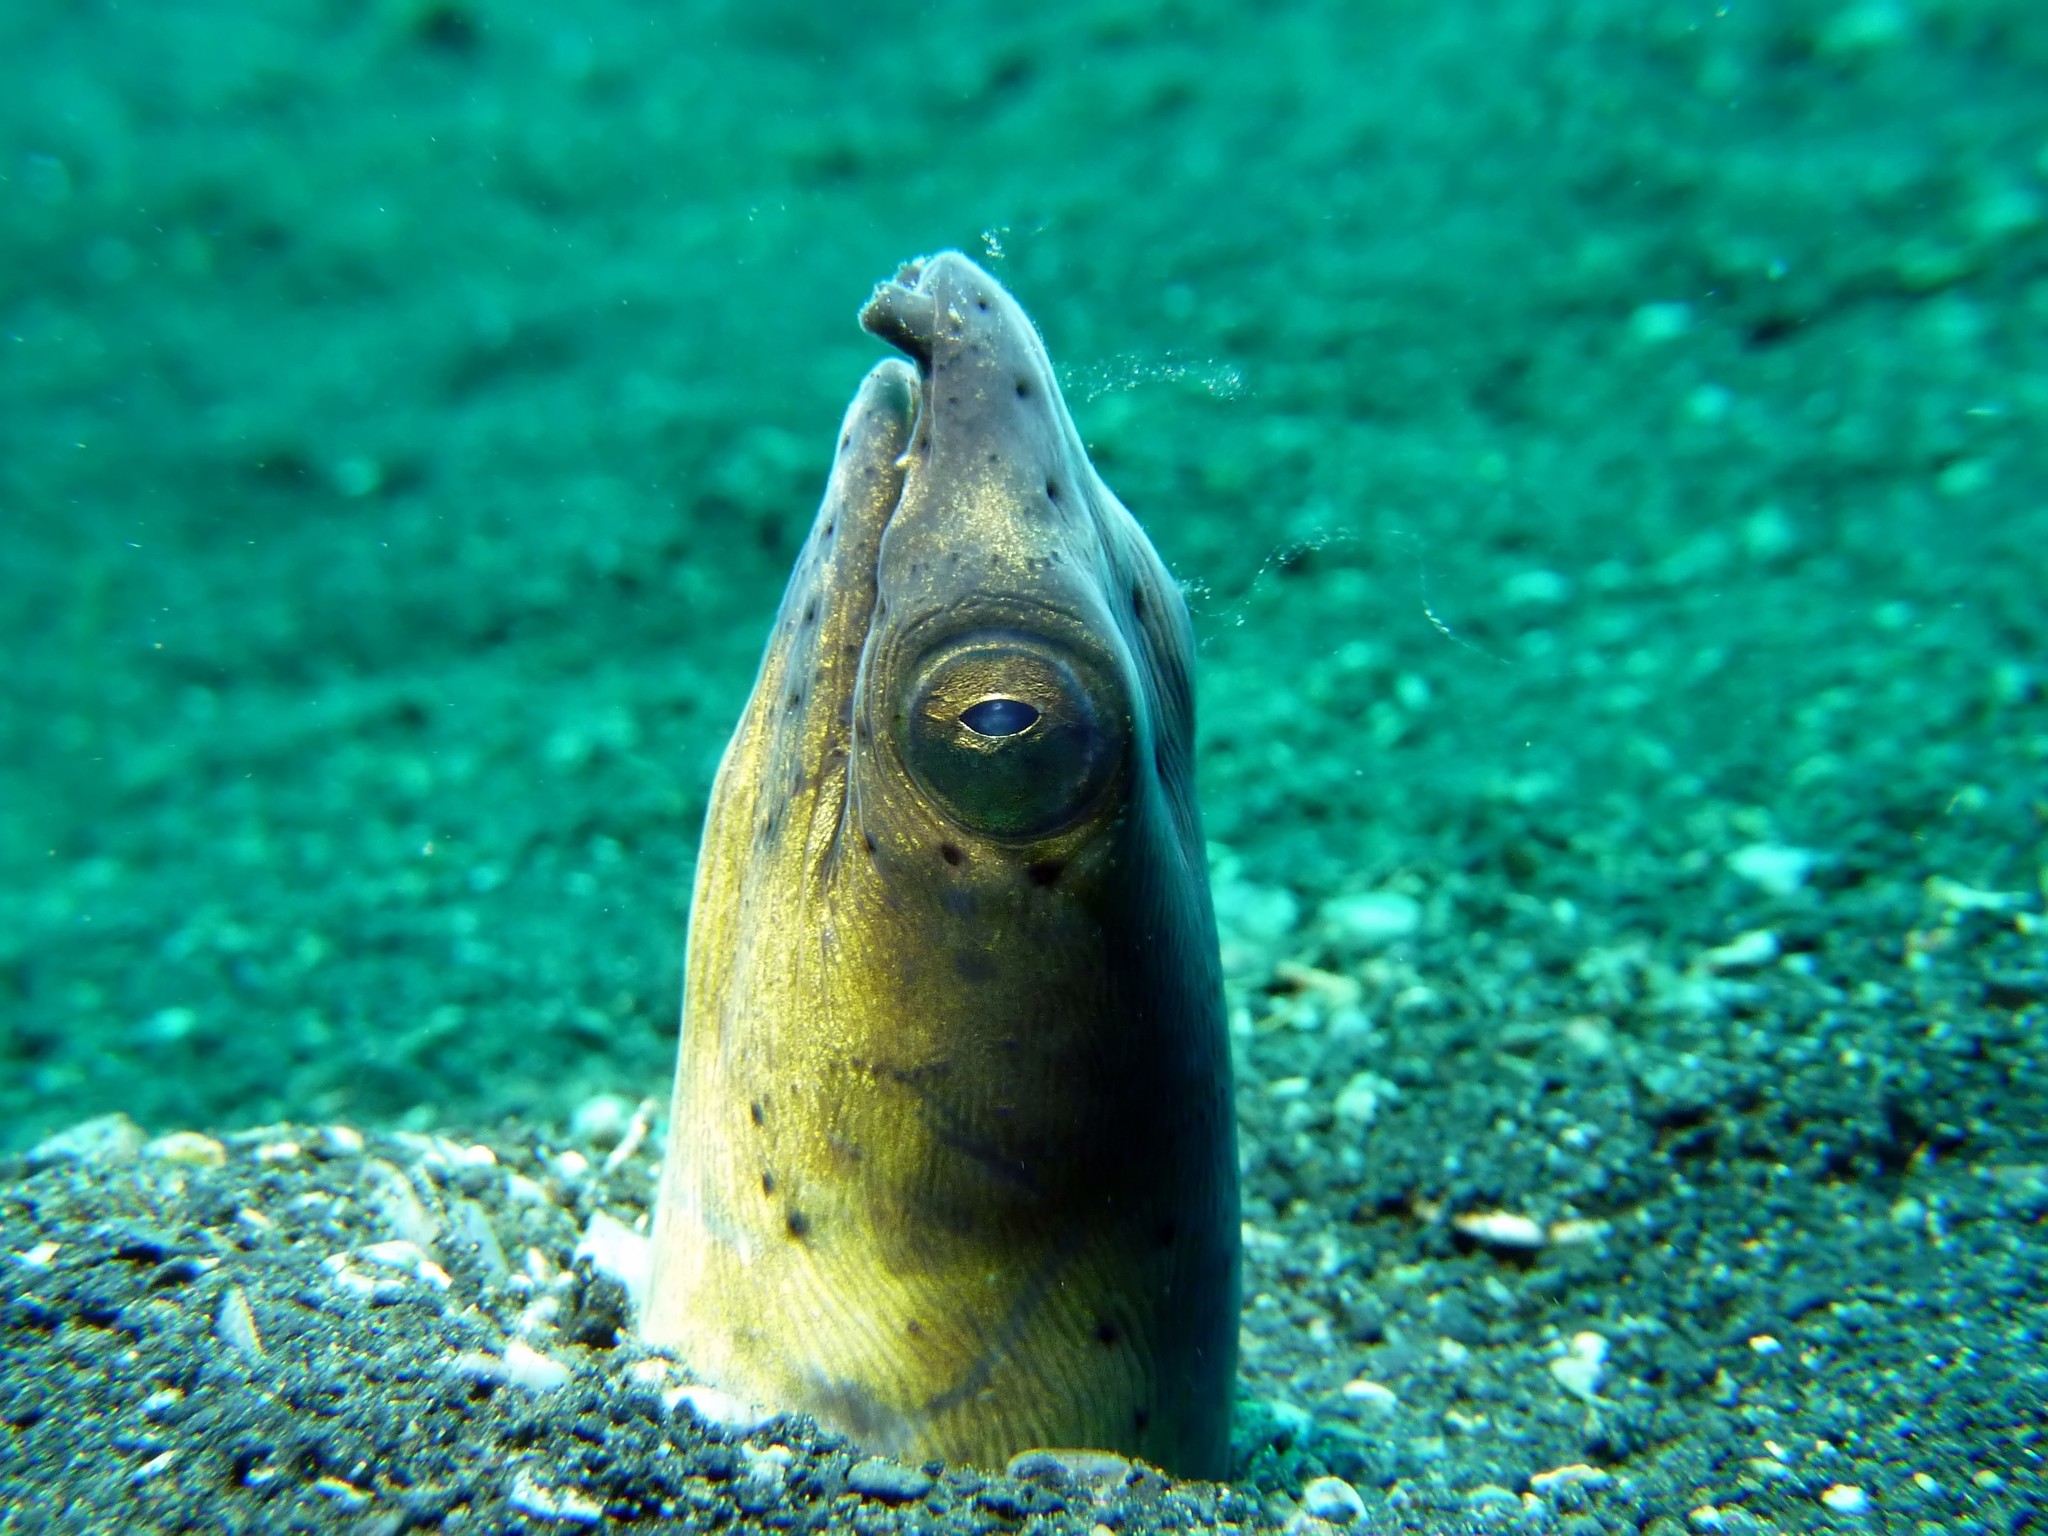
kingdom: Animalia
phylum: Chordata
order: Anguilliformes
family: Ophichthidae
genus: Ophichthus
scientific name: Ophichthus altipennis
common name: Highfin snake eel
